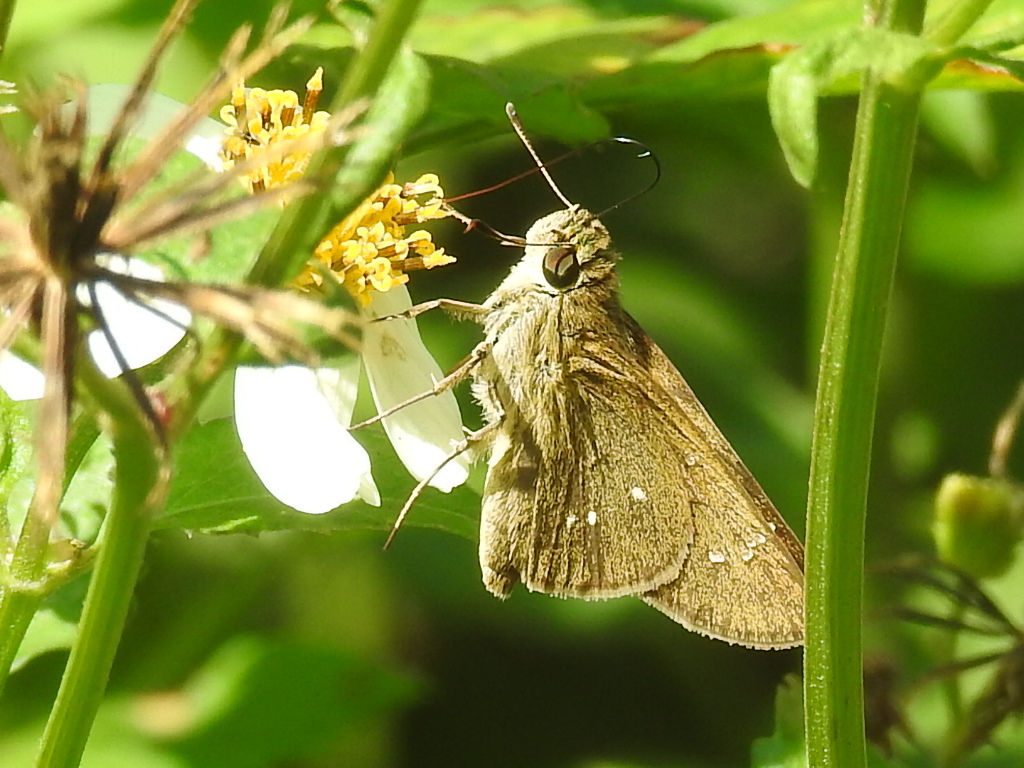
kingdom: Animalia
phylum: Arthropoda
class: Insecta
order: Lepidoptera
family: Hesperiidae
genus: Borbo
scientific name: Borbo cinnara
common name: Formosan swift
